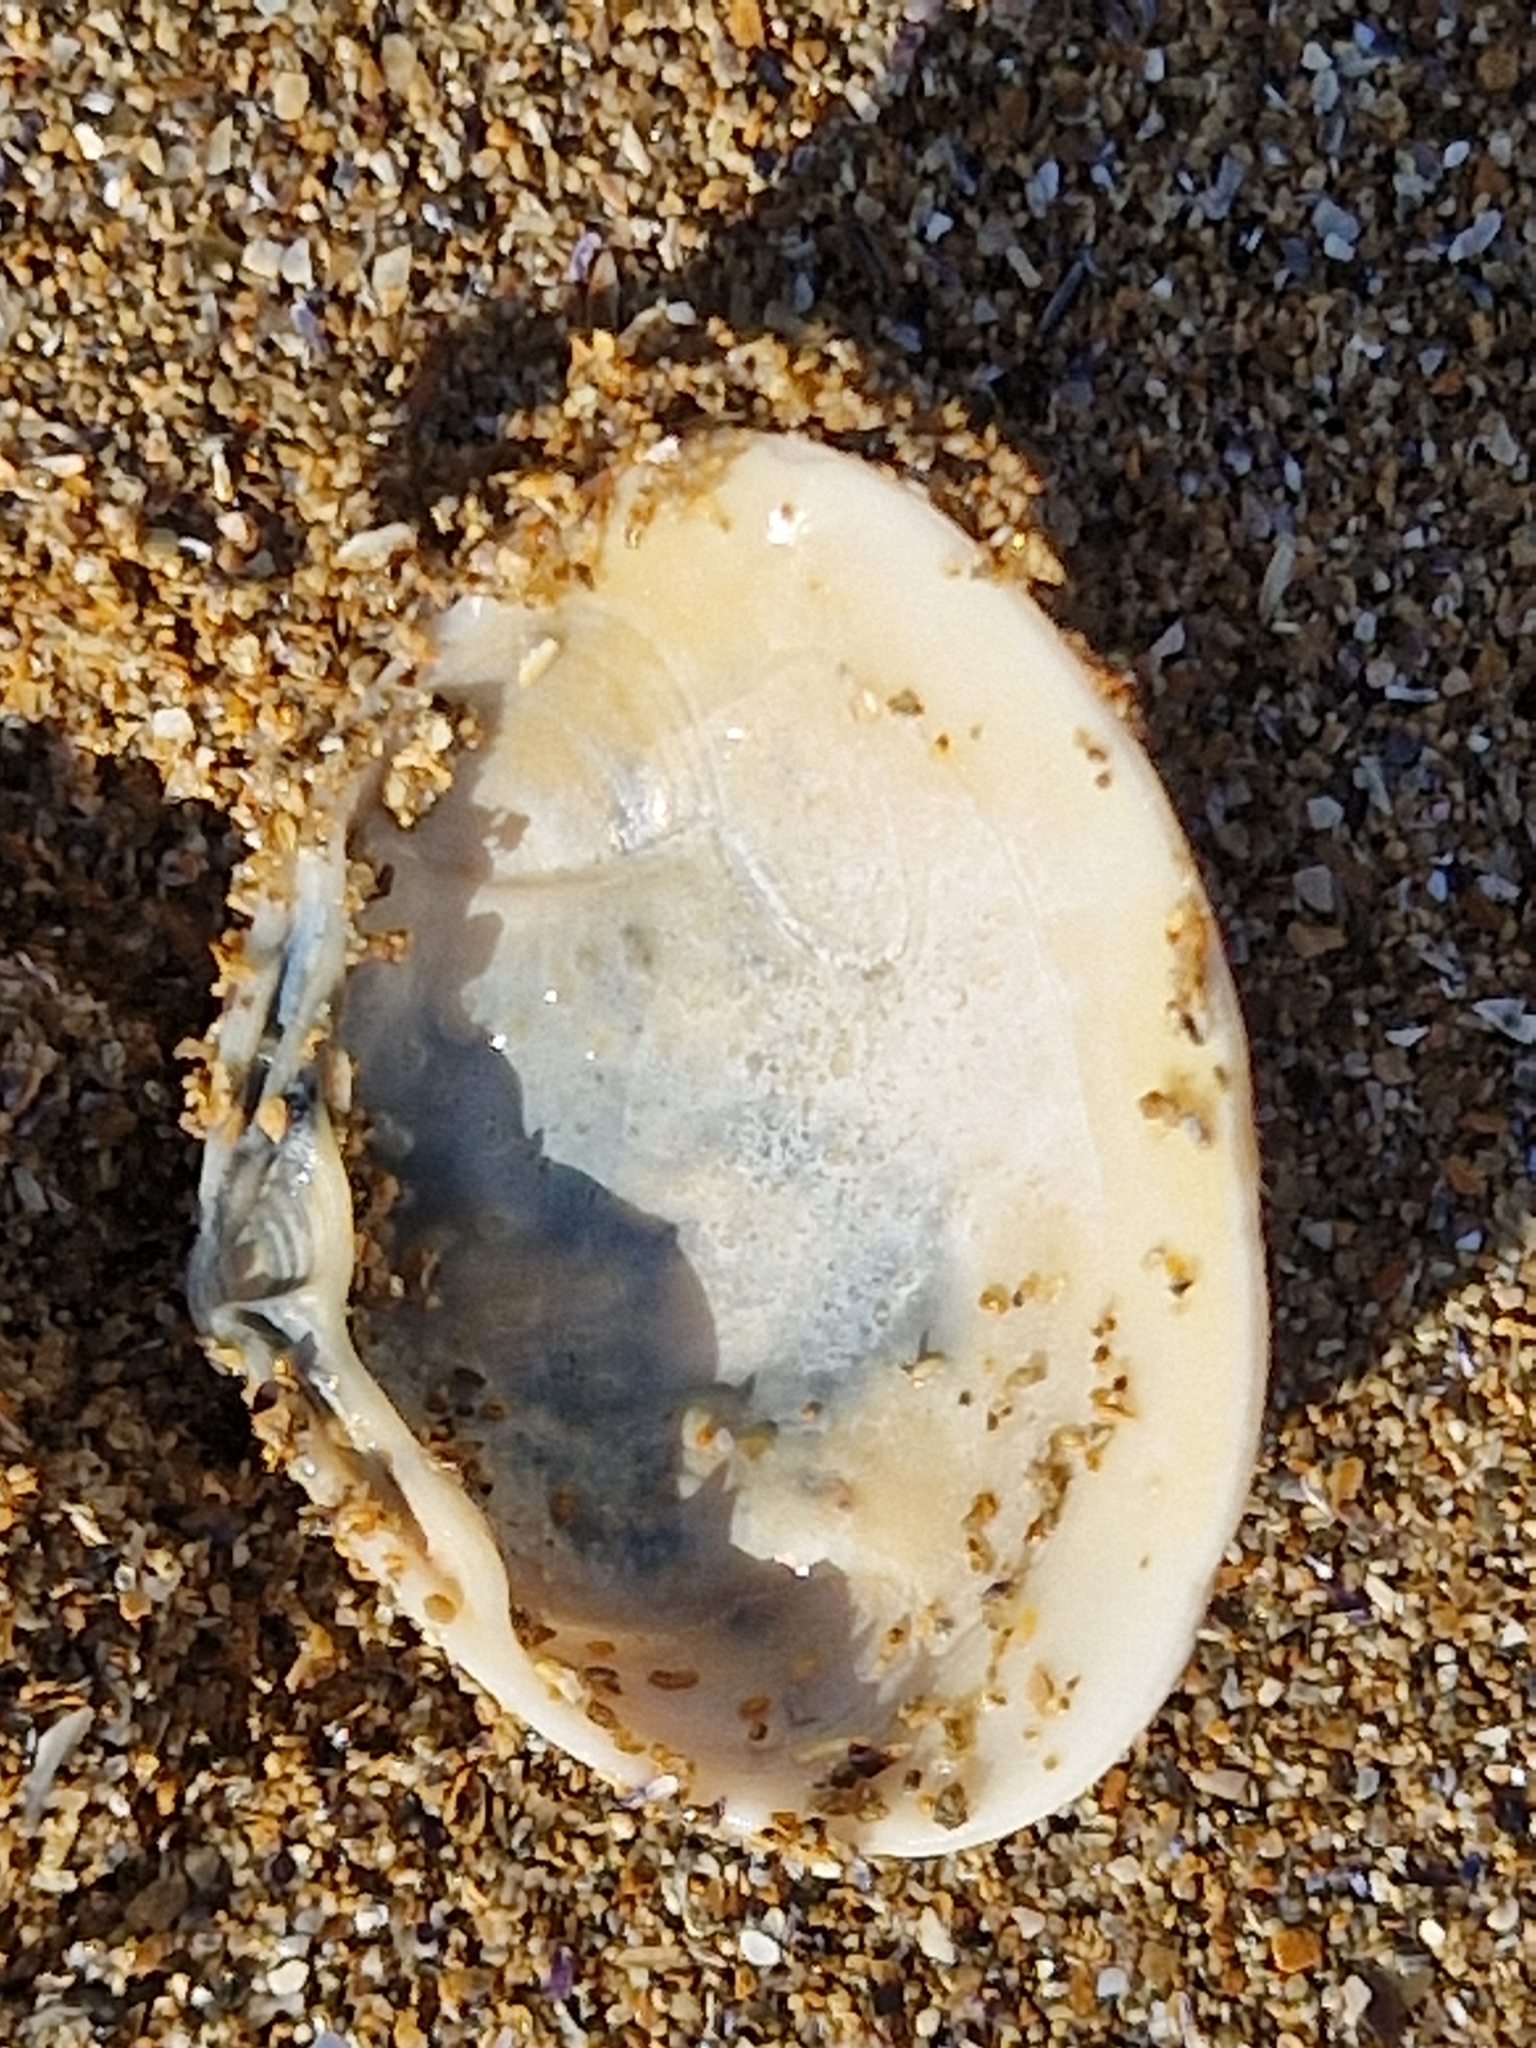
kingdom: Animalia
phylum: Mollusca
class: Bivalvia
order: Venerida
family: Mactridae
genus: Spisula
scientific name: Spisula solida
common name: Thick trough shell
